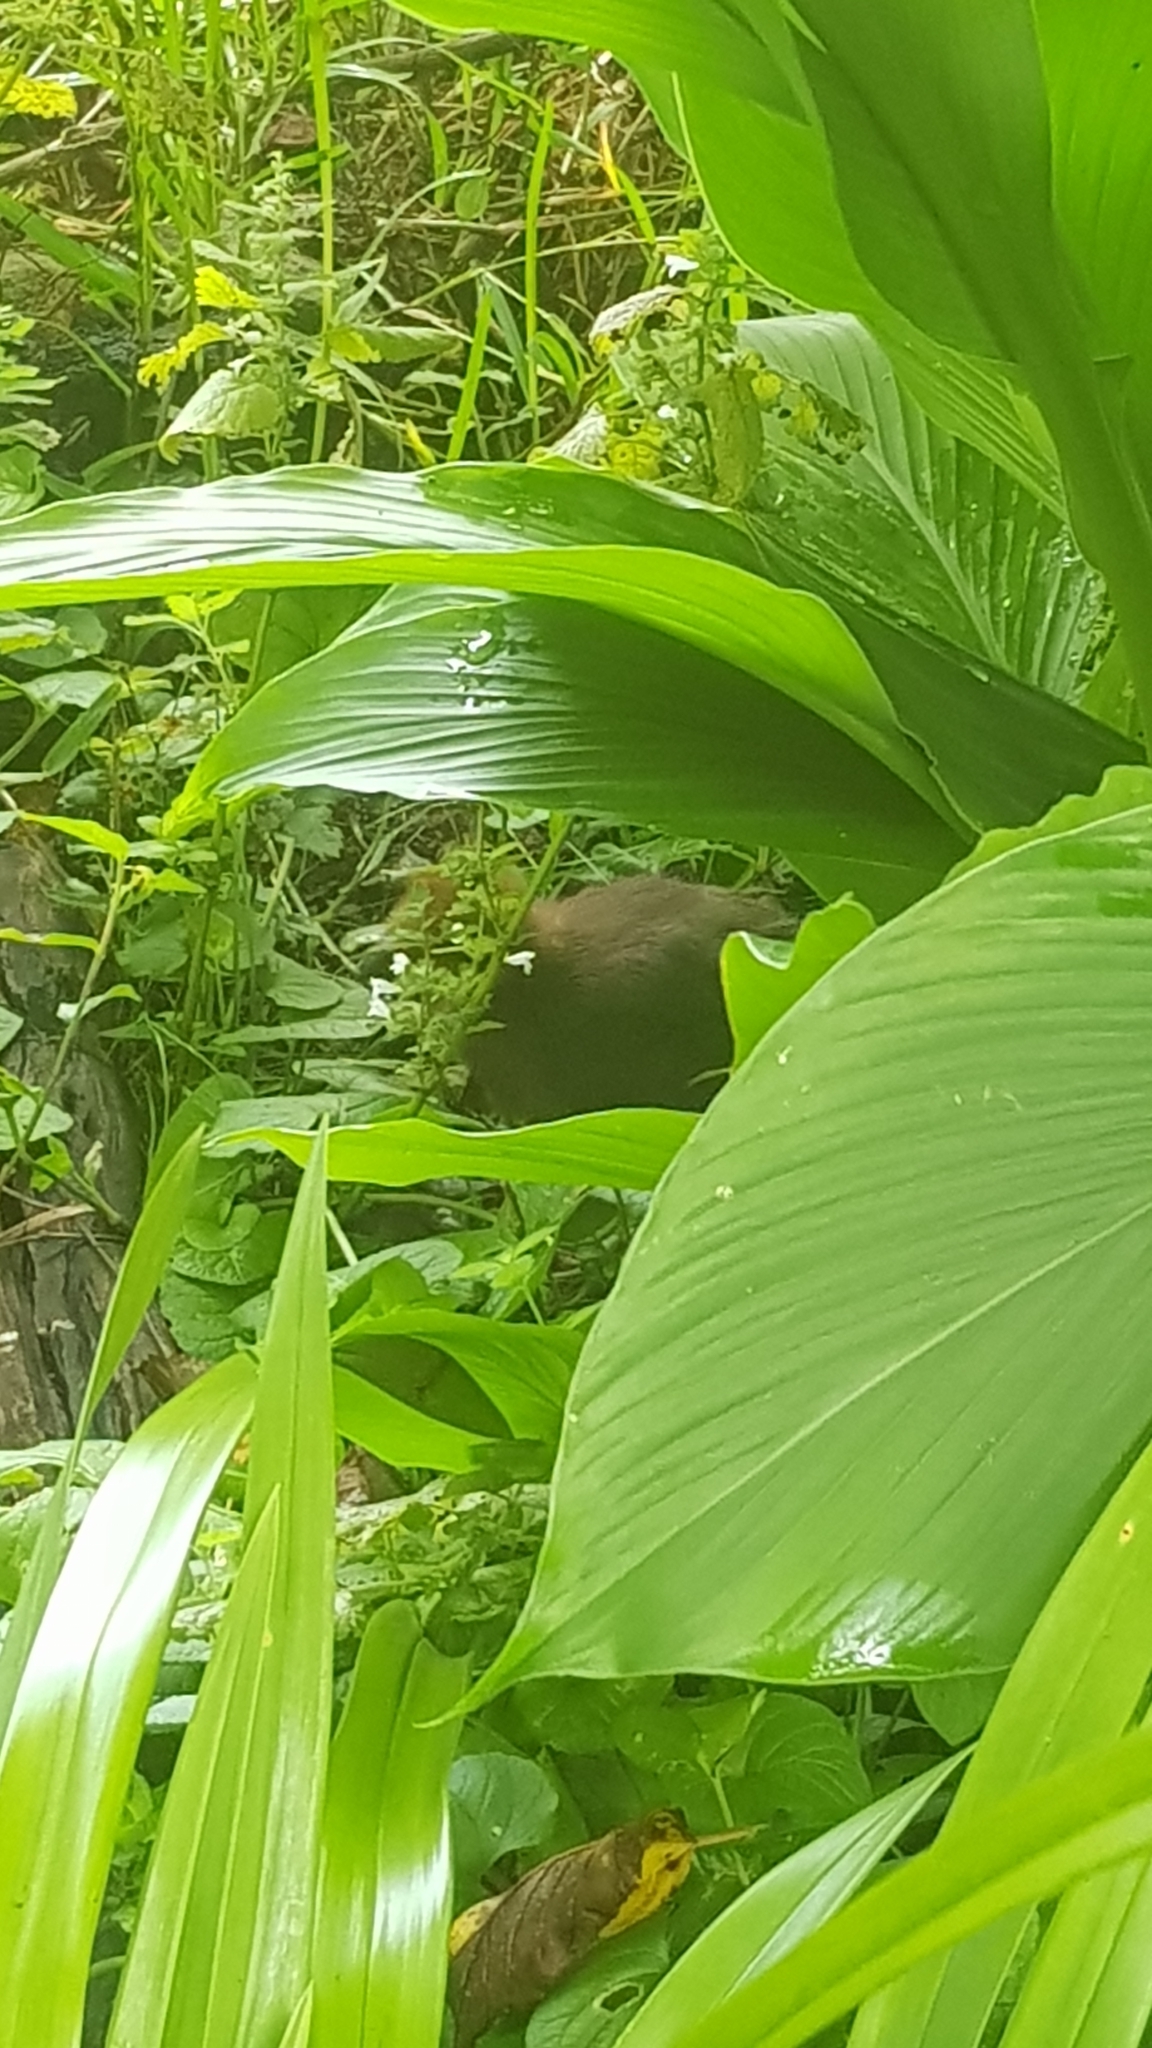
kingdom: Animalia
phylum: Chordata
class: Aves
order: Galliformes
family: Megapodiidae
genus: Alectura
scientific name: Alectura lathami
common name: Australian brushturkey
